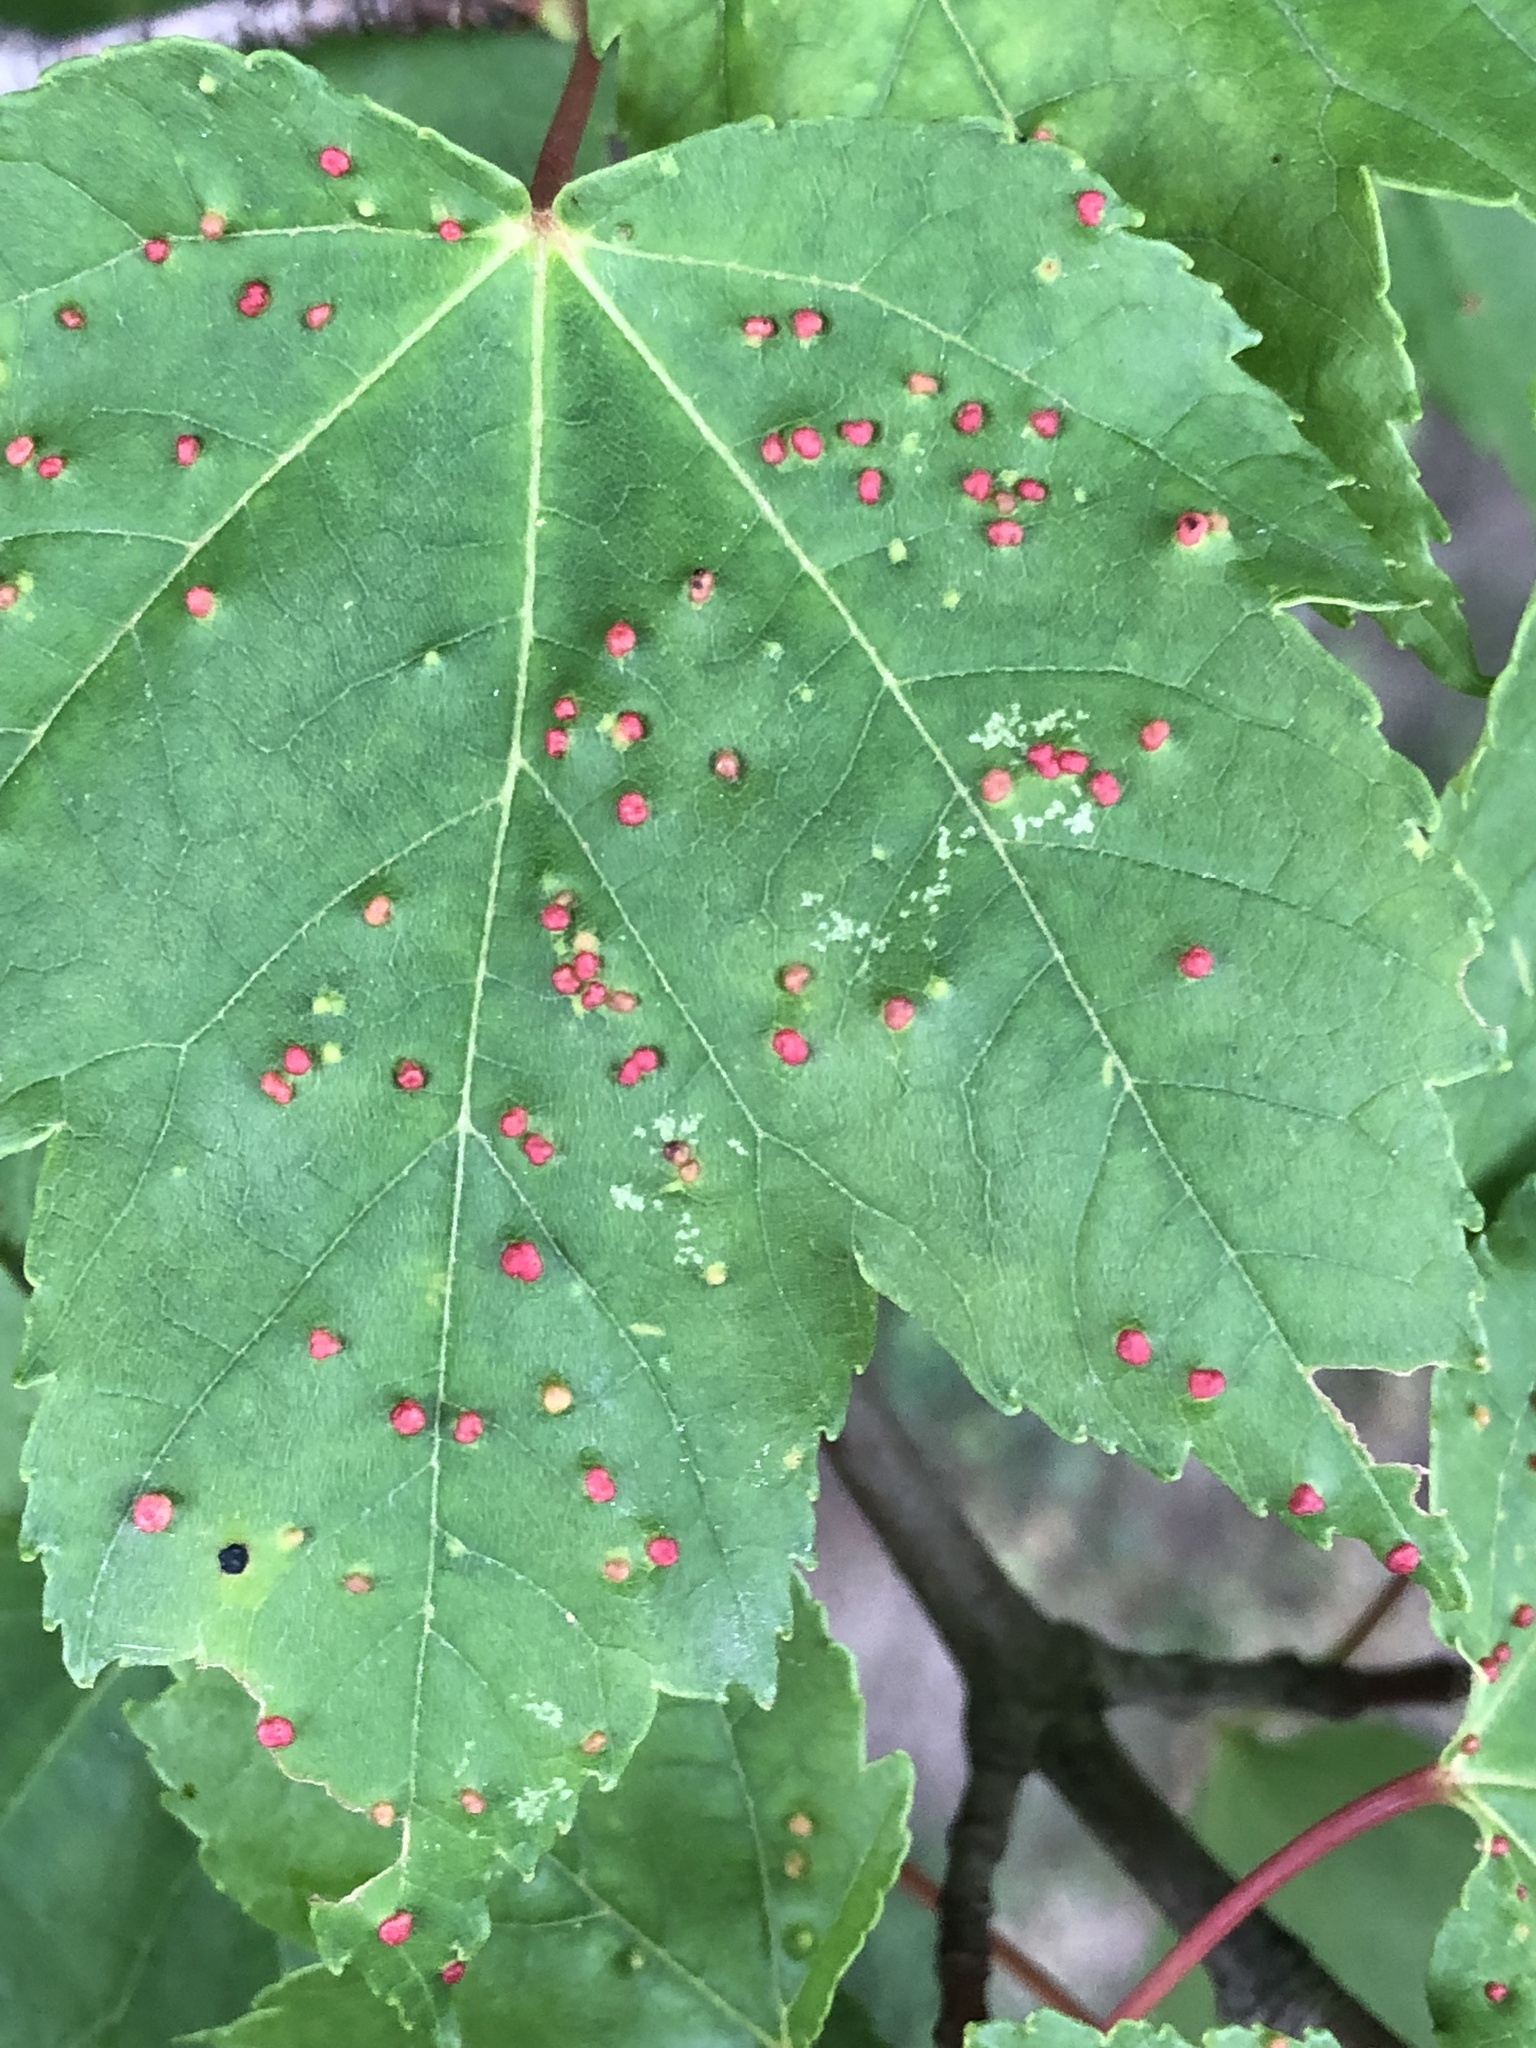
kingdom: Animalia
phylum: Arthropoda
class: Arachnida
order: Trombidiformes
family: Eriophyidae
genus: Vasates
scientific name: Vasates quadripedes
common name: Maple bladder gall mite
